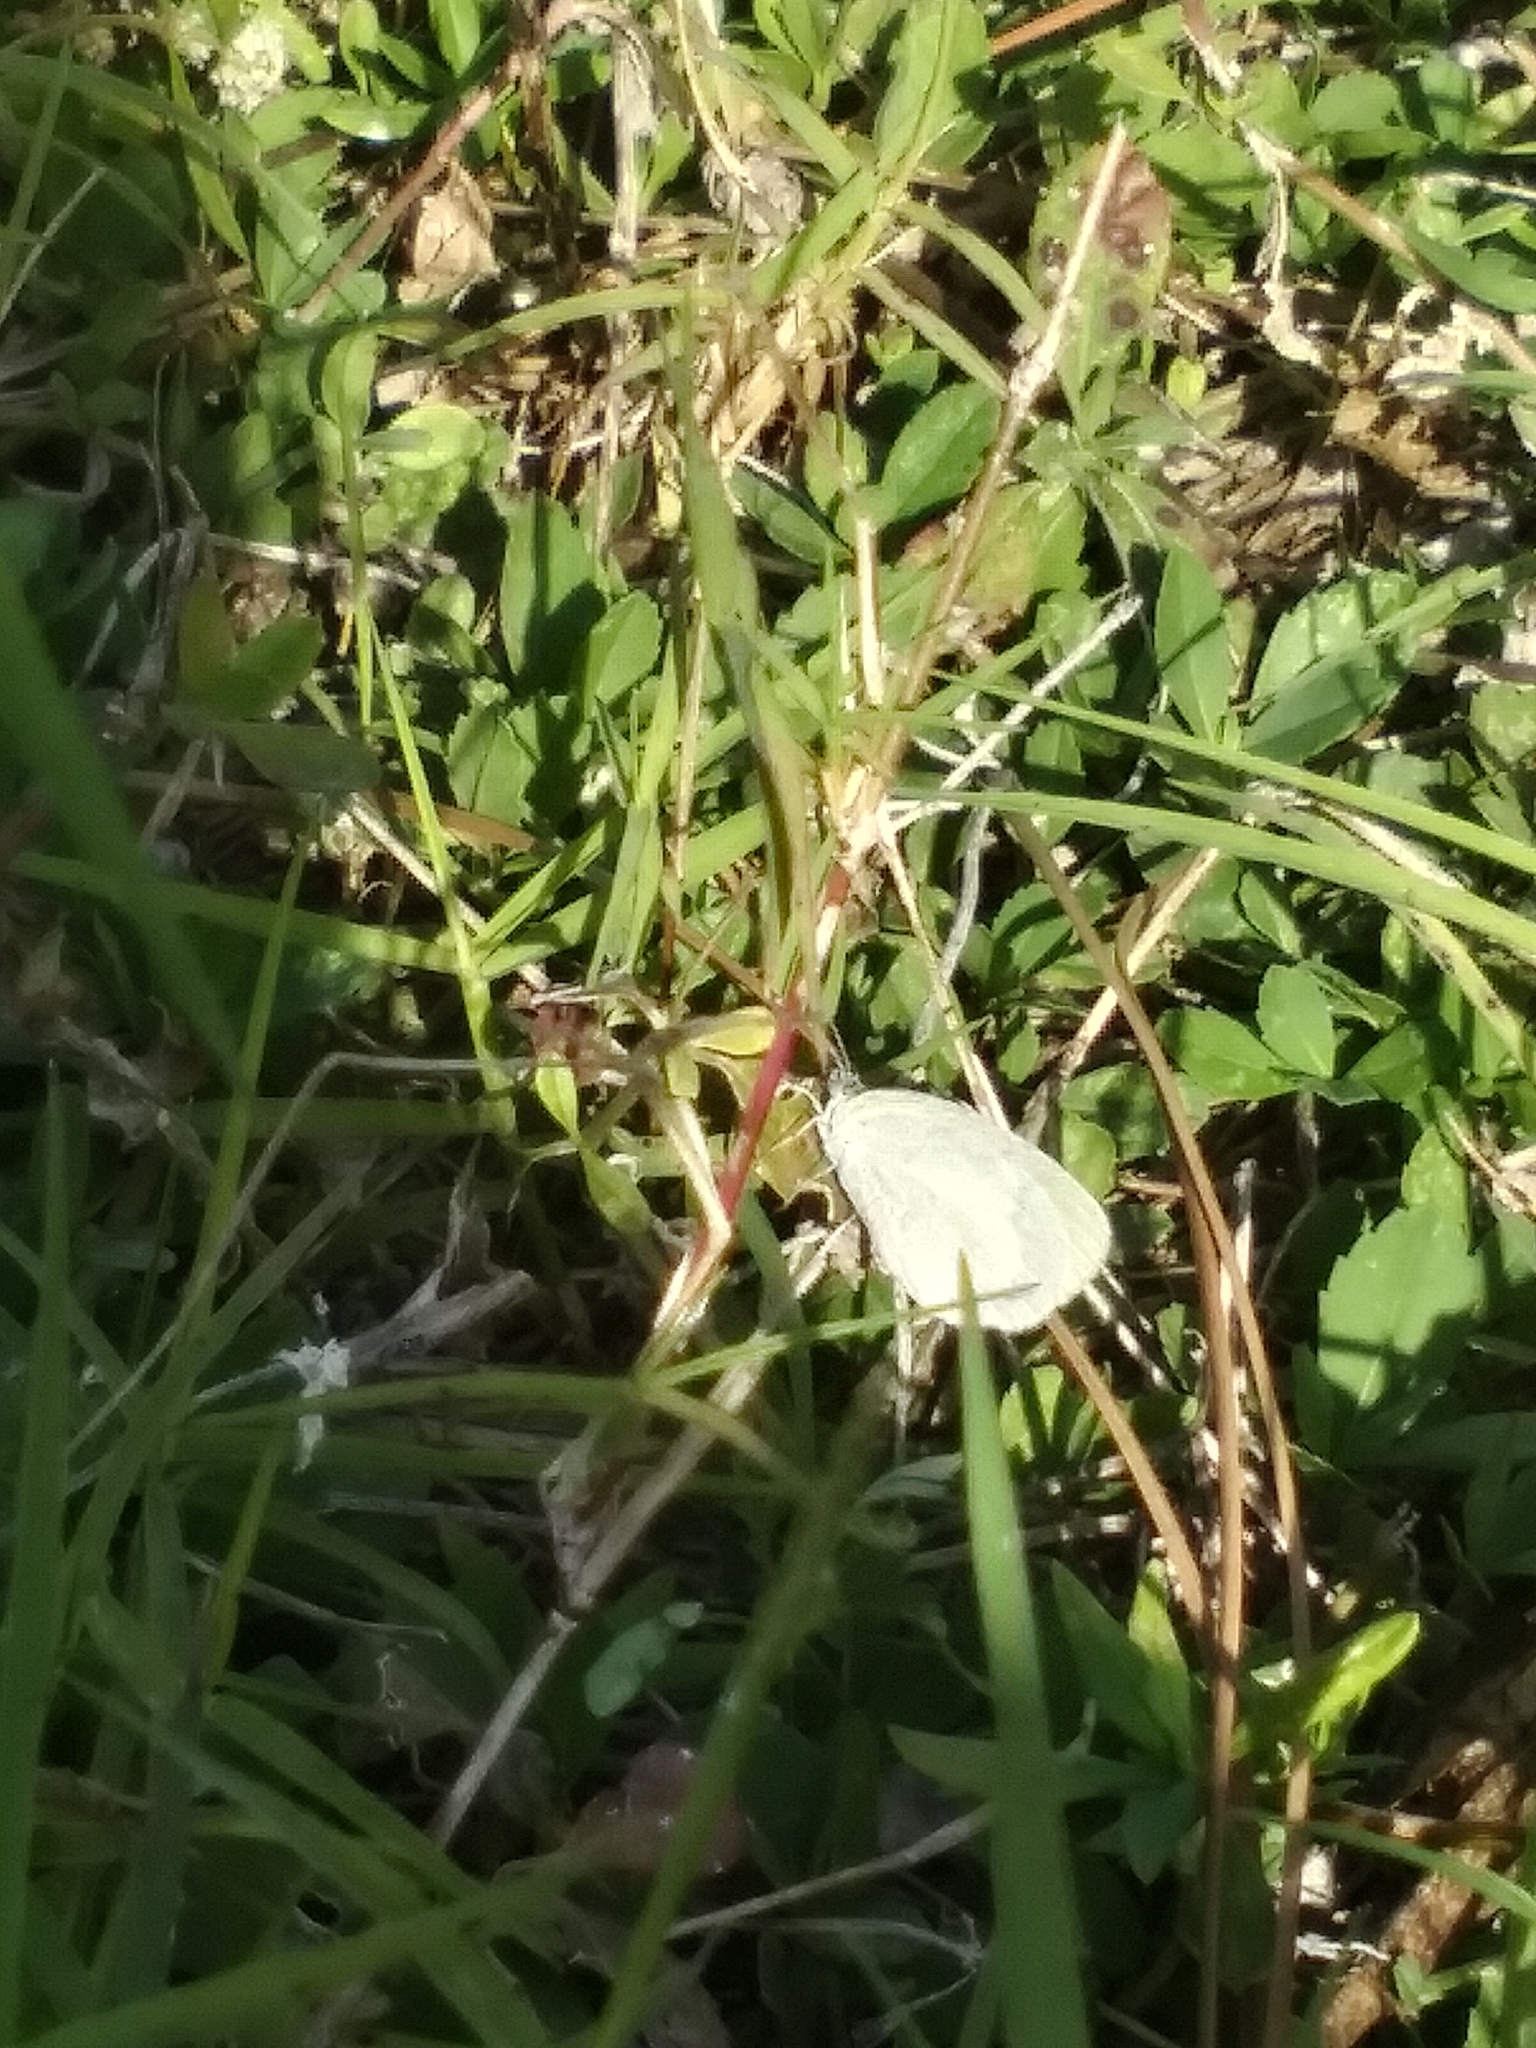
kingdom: Animalia
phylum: Arthropoda
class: Insecta
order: Lepidoptera
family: Pieridae
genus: Eurema
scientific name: Eurema daira
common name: Barred sulphur
